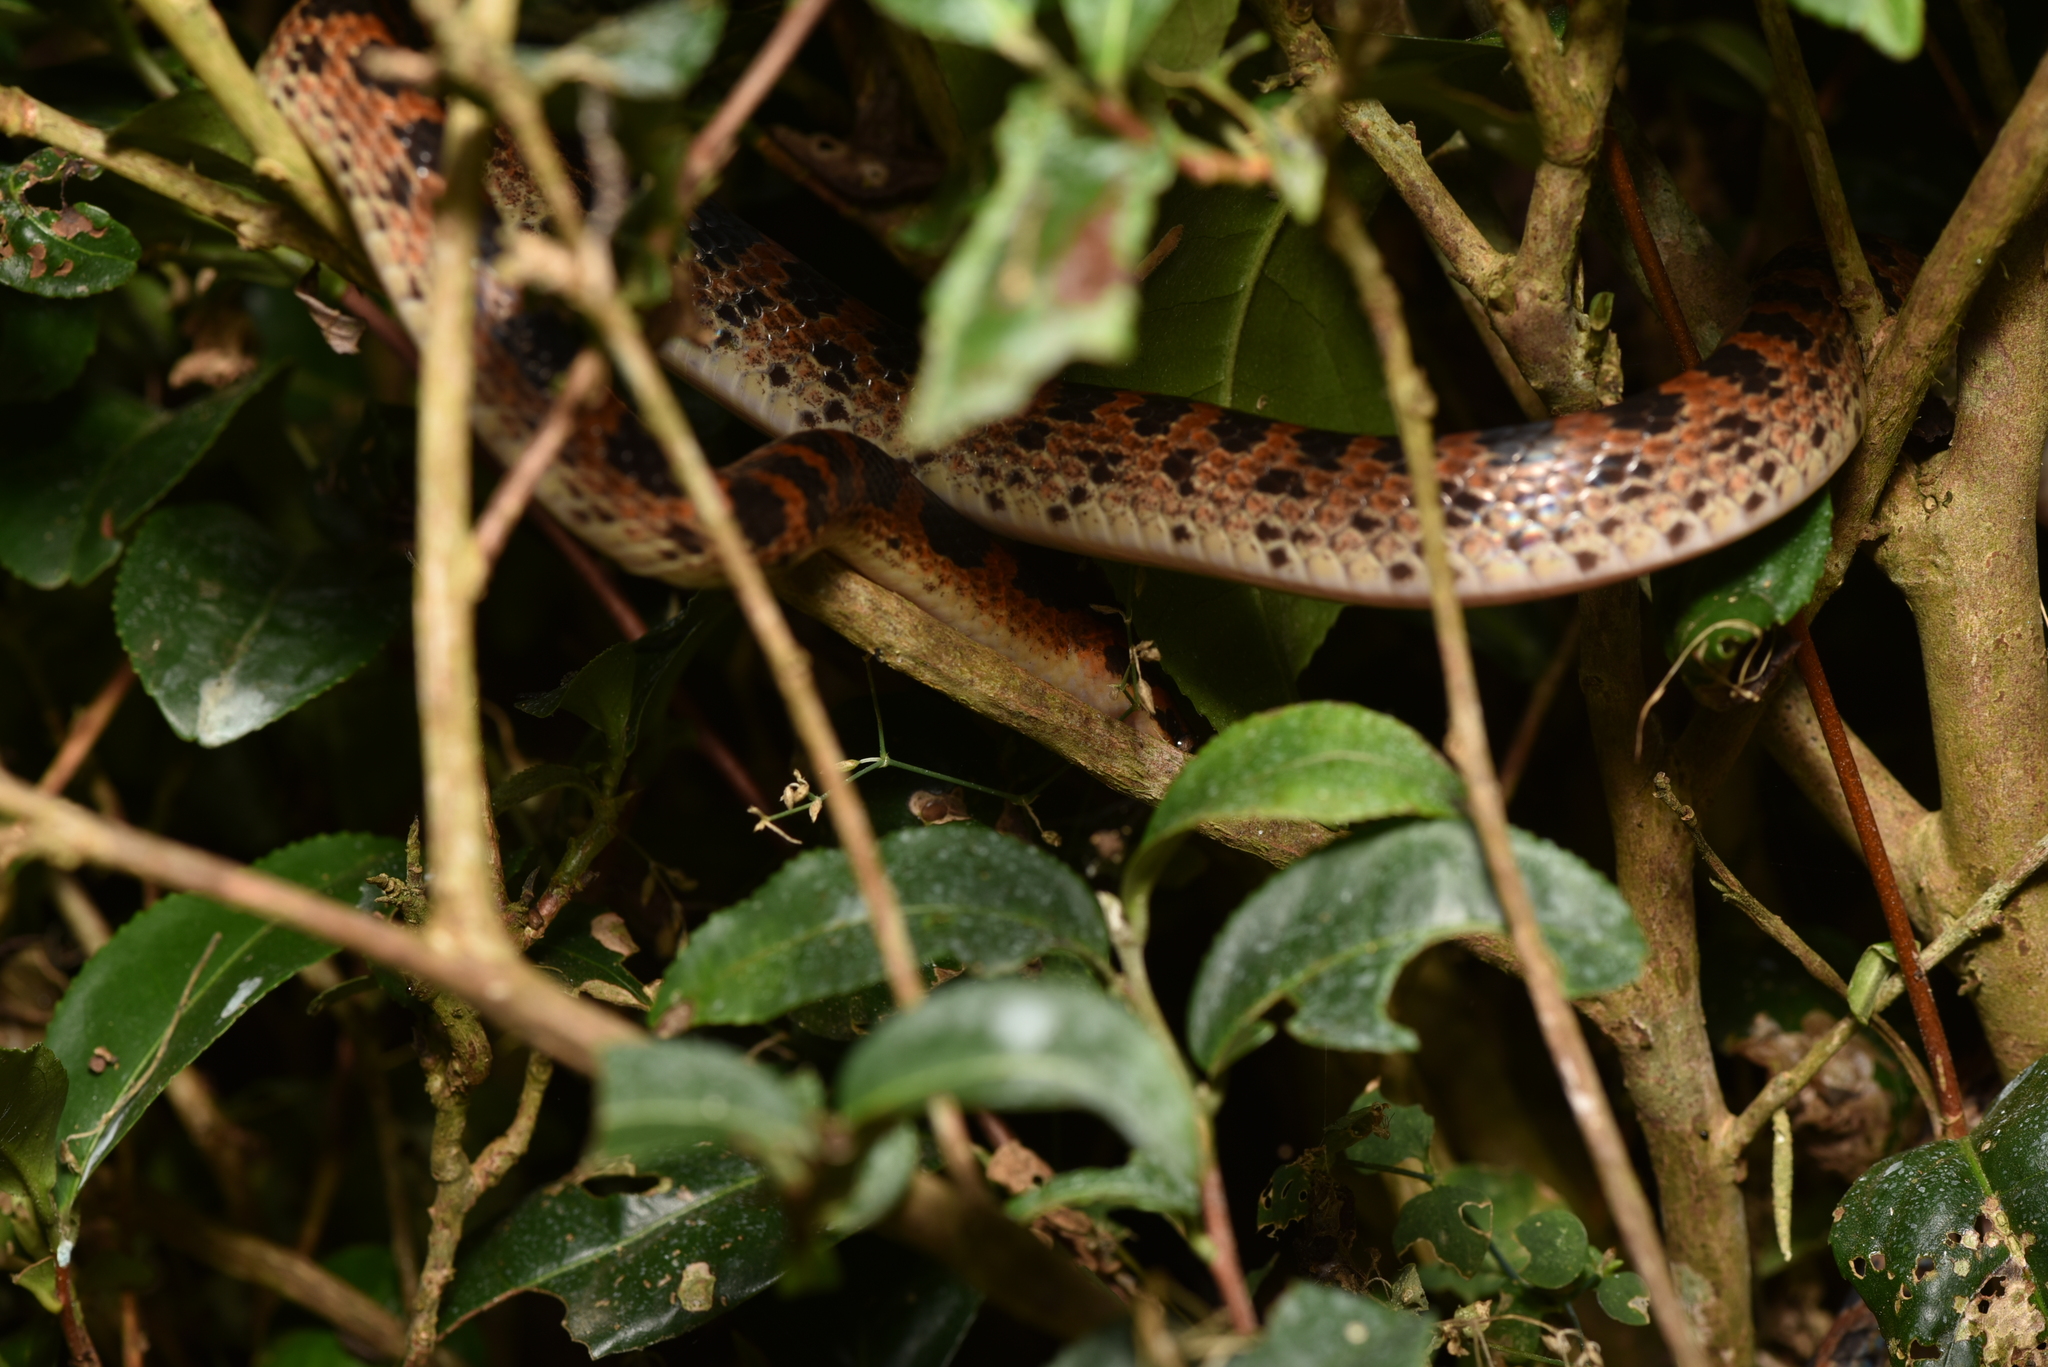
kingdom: Animalia
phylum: Chordata
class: Squamata
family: Colubridae
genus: Lycodon
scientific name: Lycodon rufozonatus
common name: Red-banded snake
